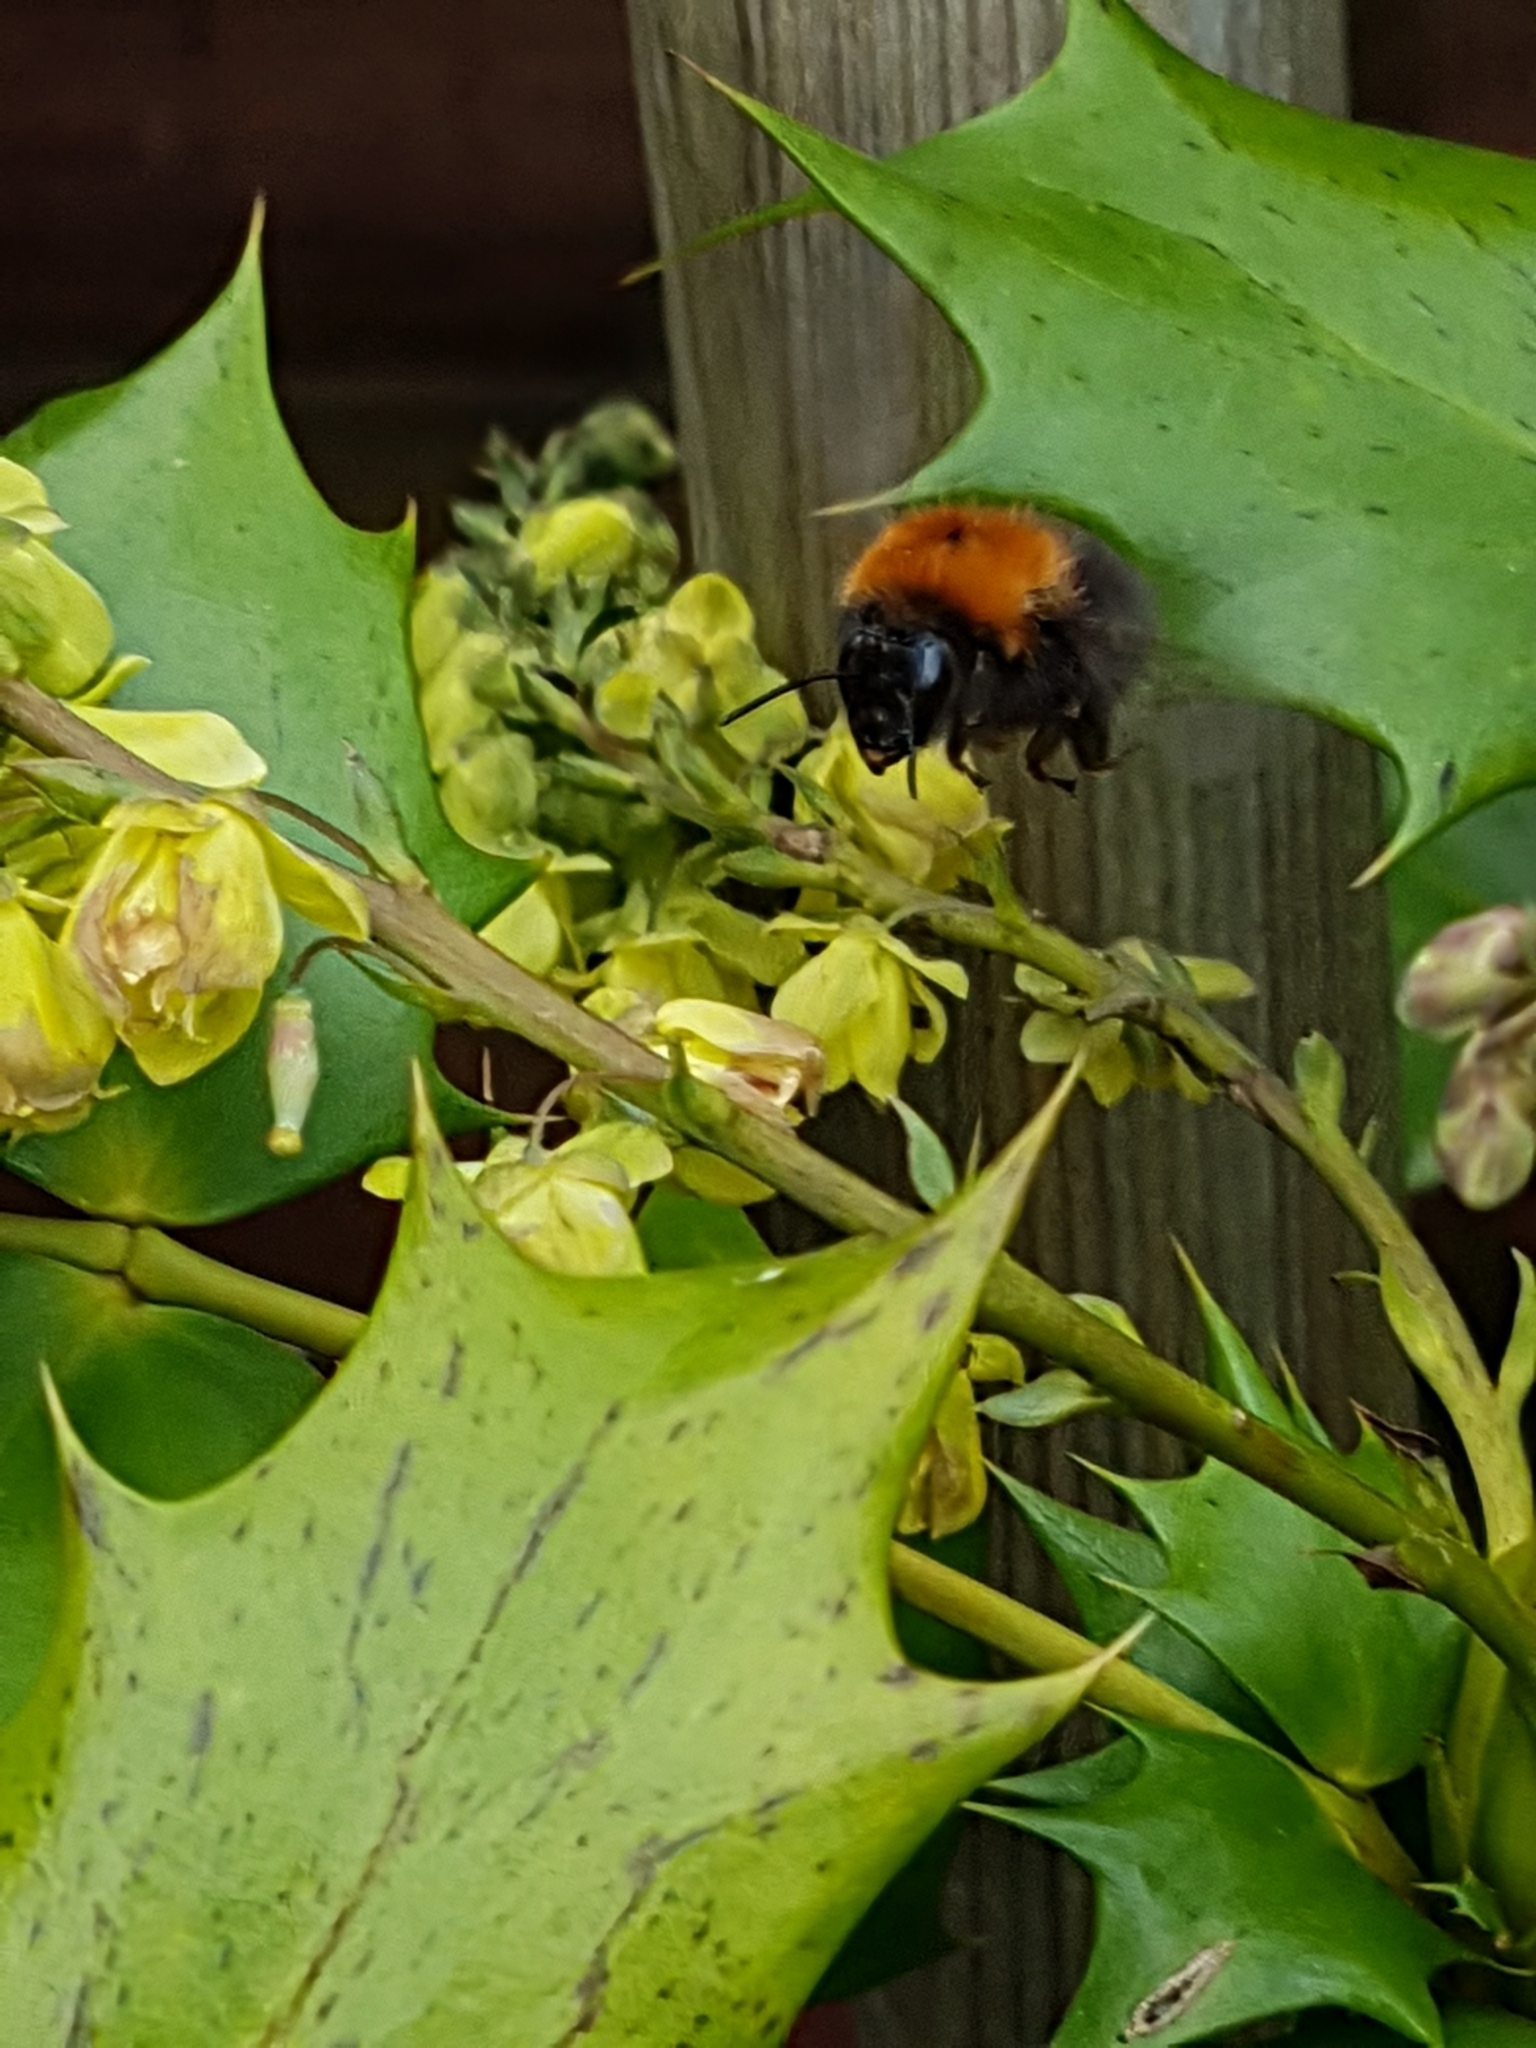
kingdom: Animalia
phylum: Arthropoda
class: Insecta
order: Hymenoptera
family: Apidae
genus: Bombus
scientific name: Bombus hypnorum
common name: New garden bumblebee
